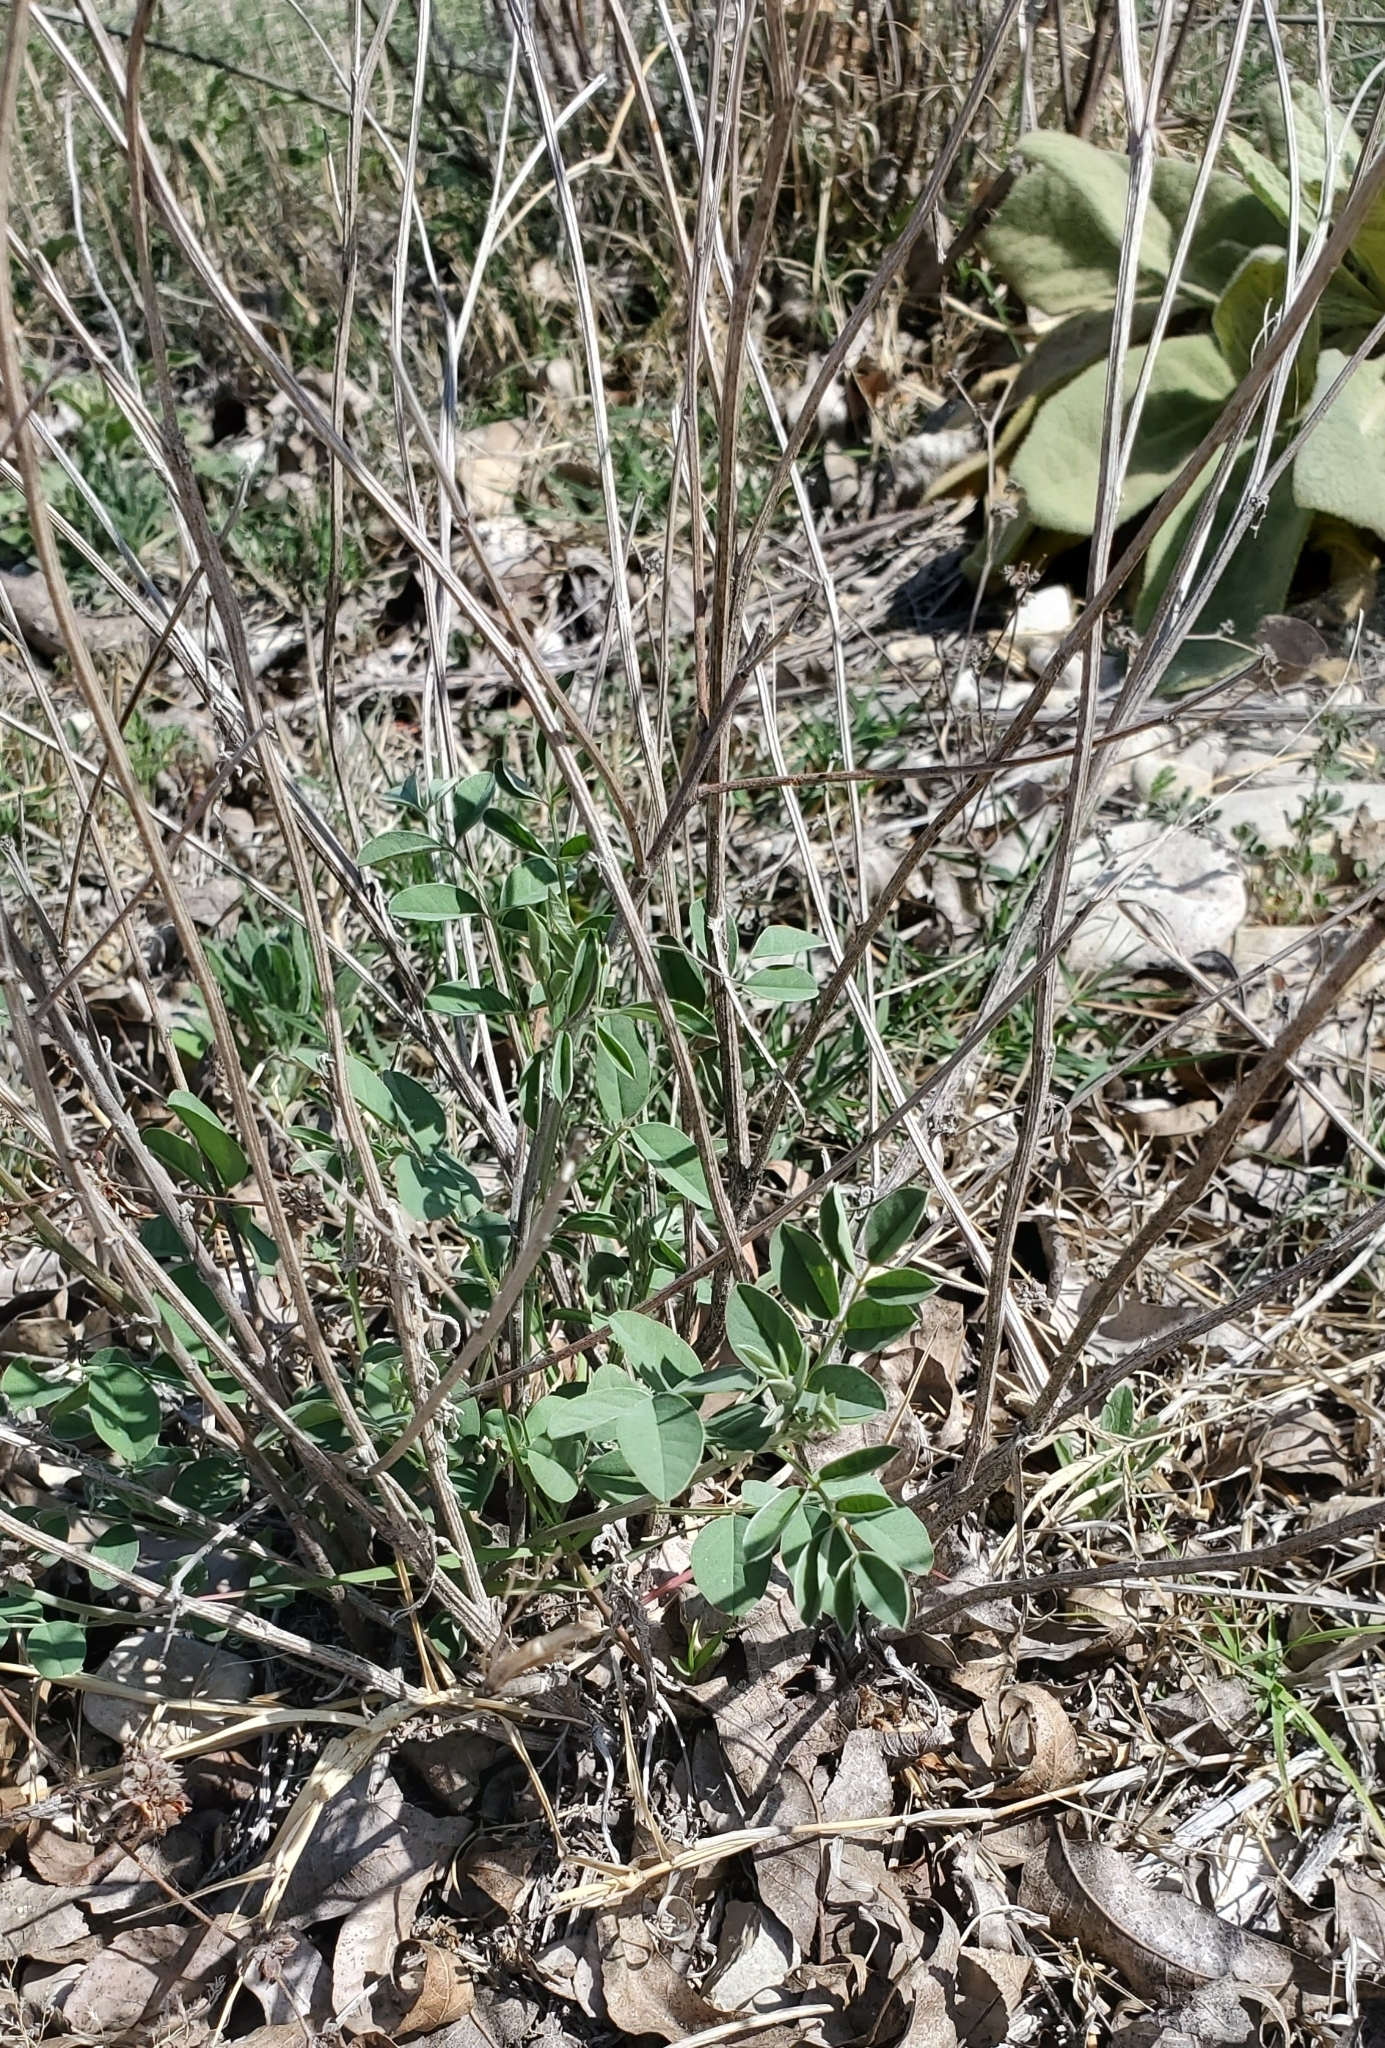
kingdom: Plantae
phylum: Tracheophyta
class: Magnoliopsida
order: Fabales
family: Fabaceae
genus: Indigofera
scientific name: Indigofera lindheimeriana
